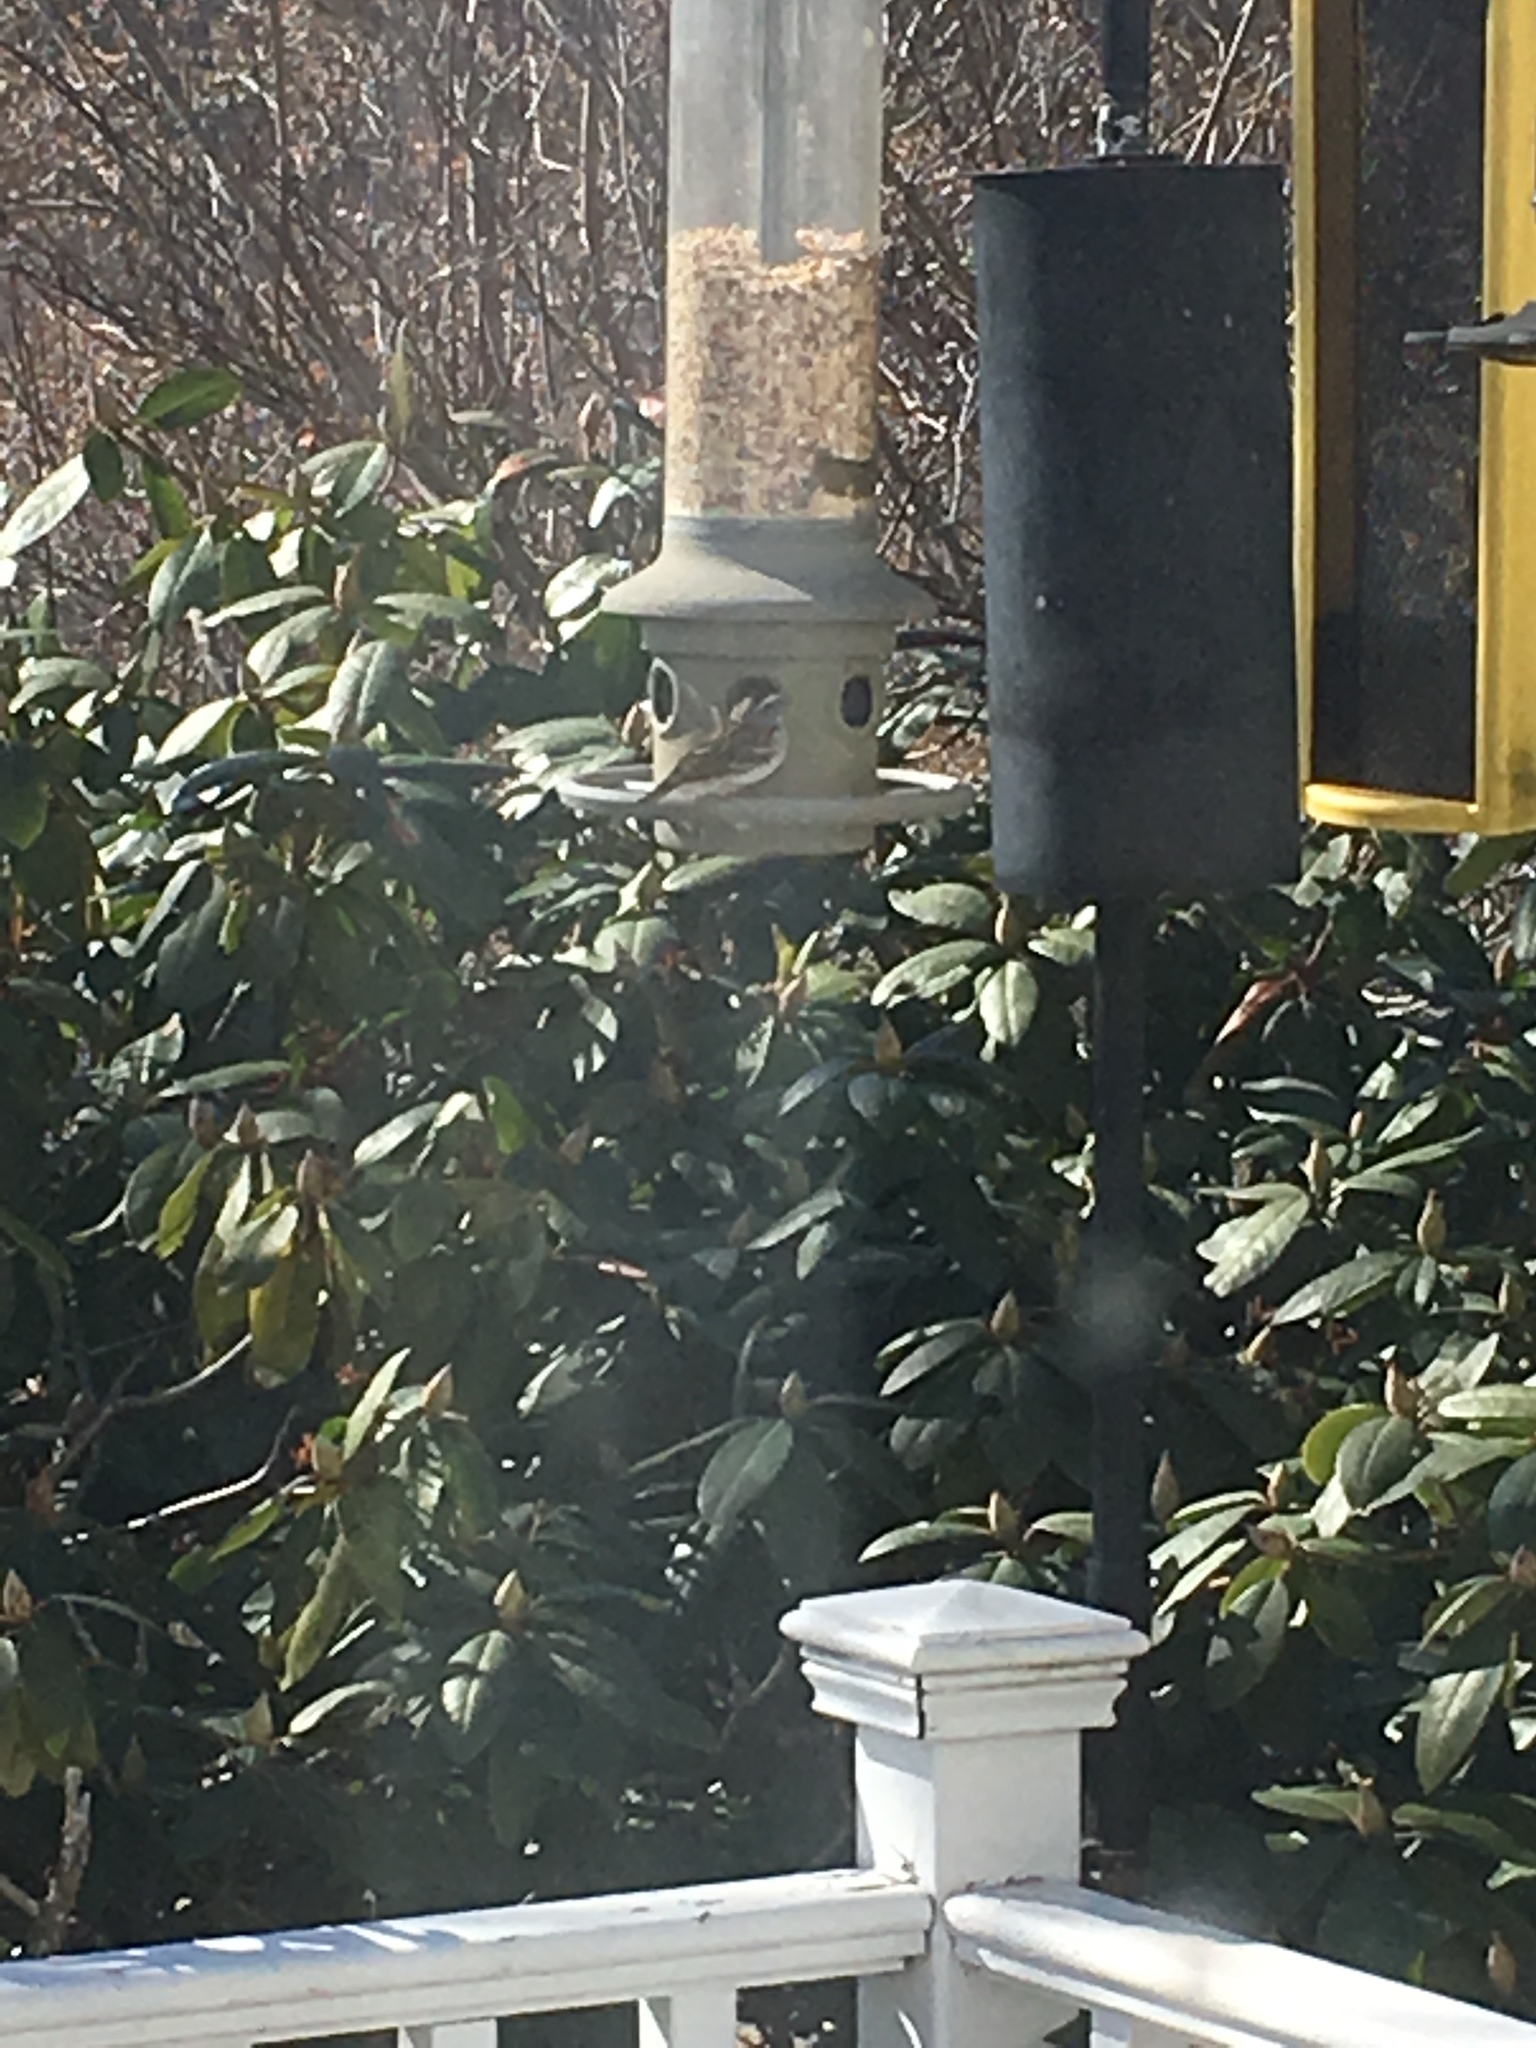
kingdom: Animalia
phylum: Chordata
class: Aves
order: Passeriformes
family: Passerellidae
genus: Spizella
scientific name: Spizella passerina
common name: Chipping sparrow
